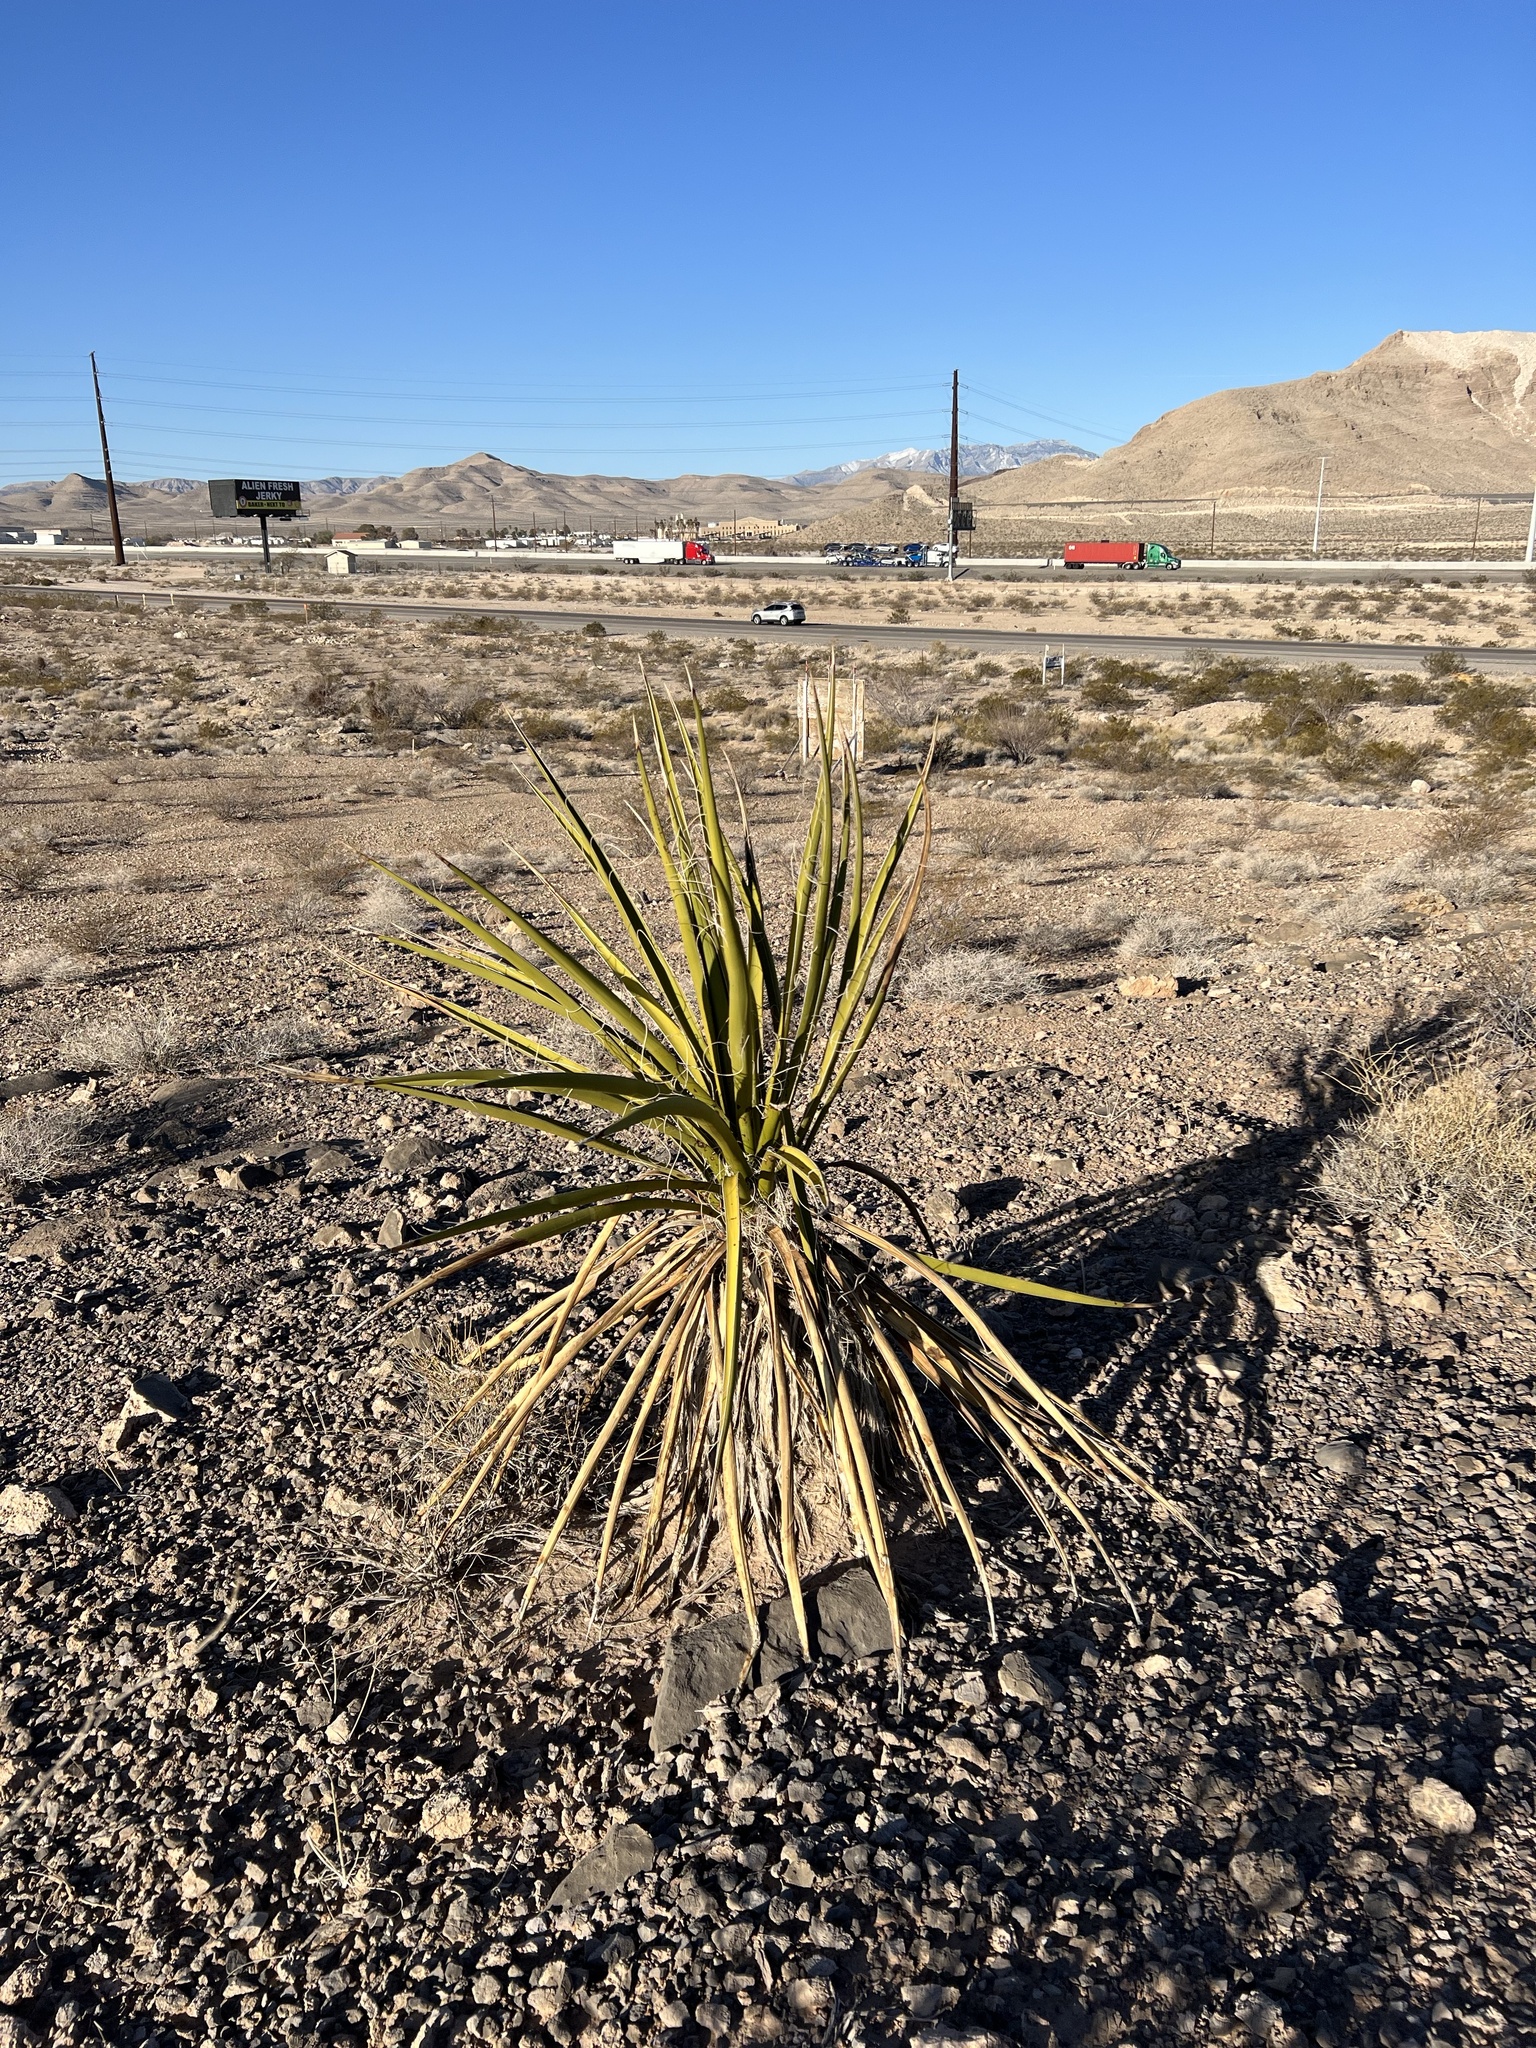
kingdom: Plantae
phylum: Tracheophyta
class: Liliopsida
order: Asparagales
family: Asparagaceae
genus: Yucca
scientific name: Yucca schidigera
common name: Mojave yucca
